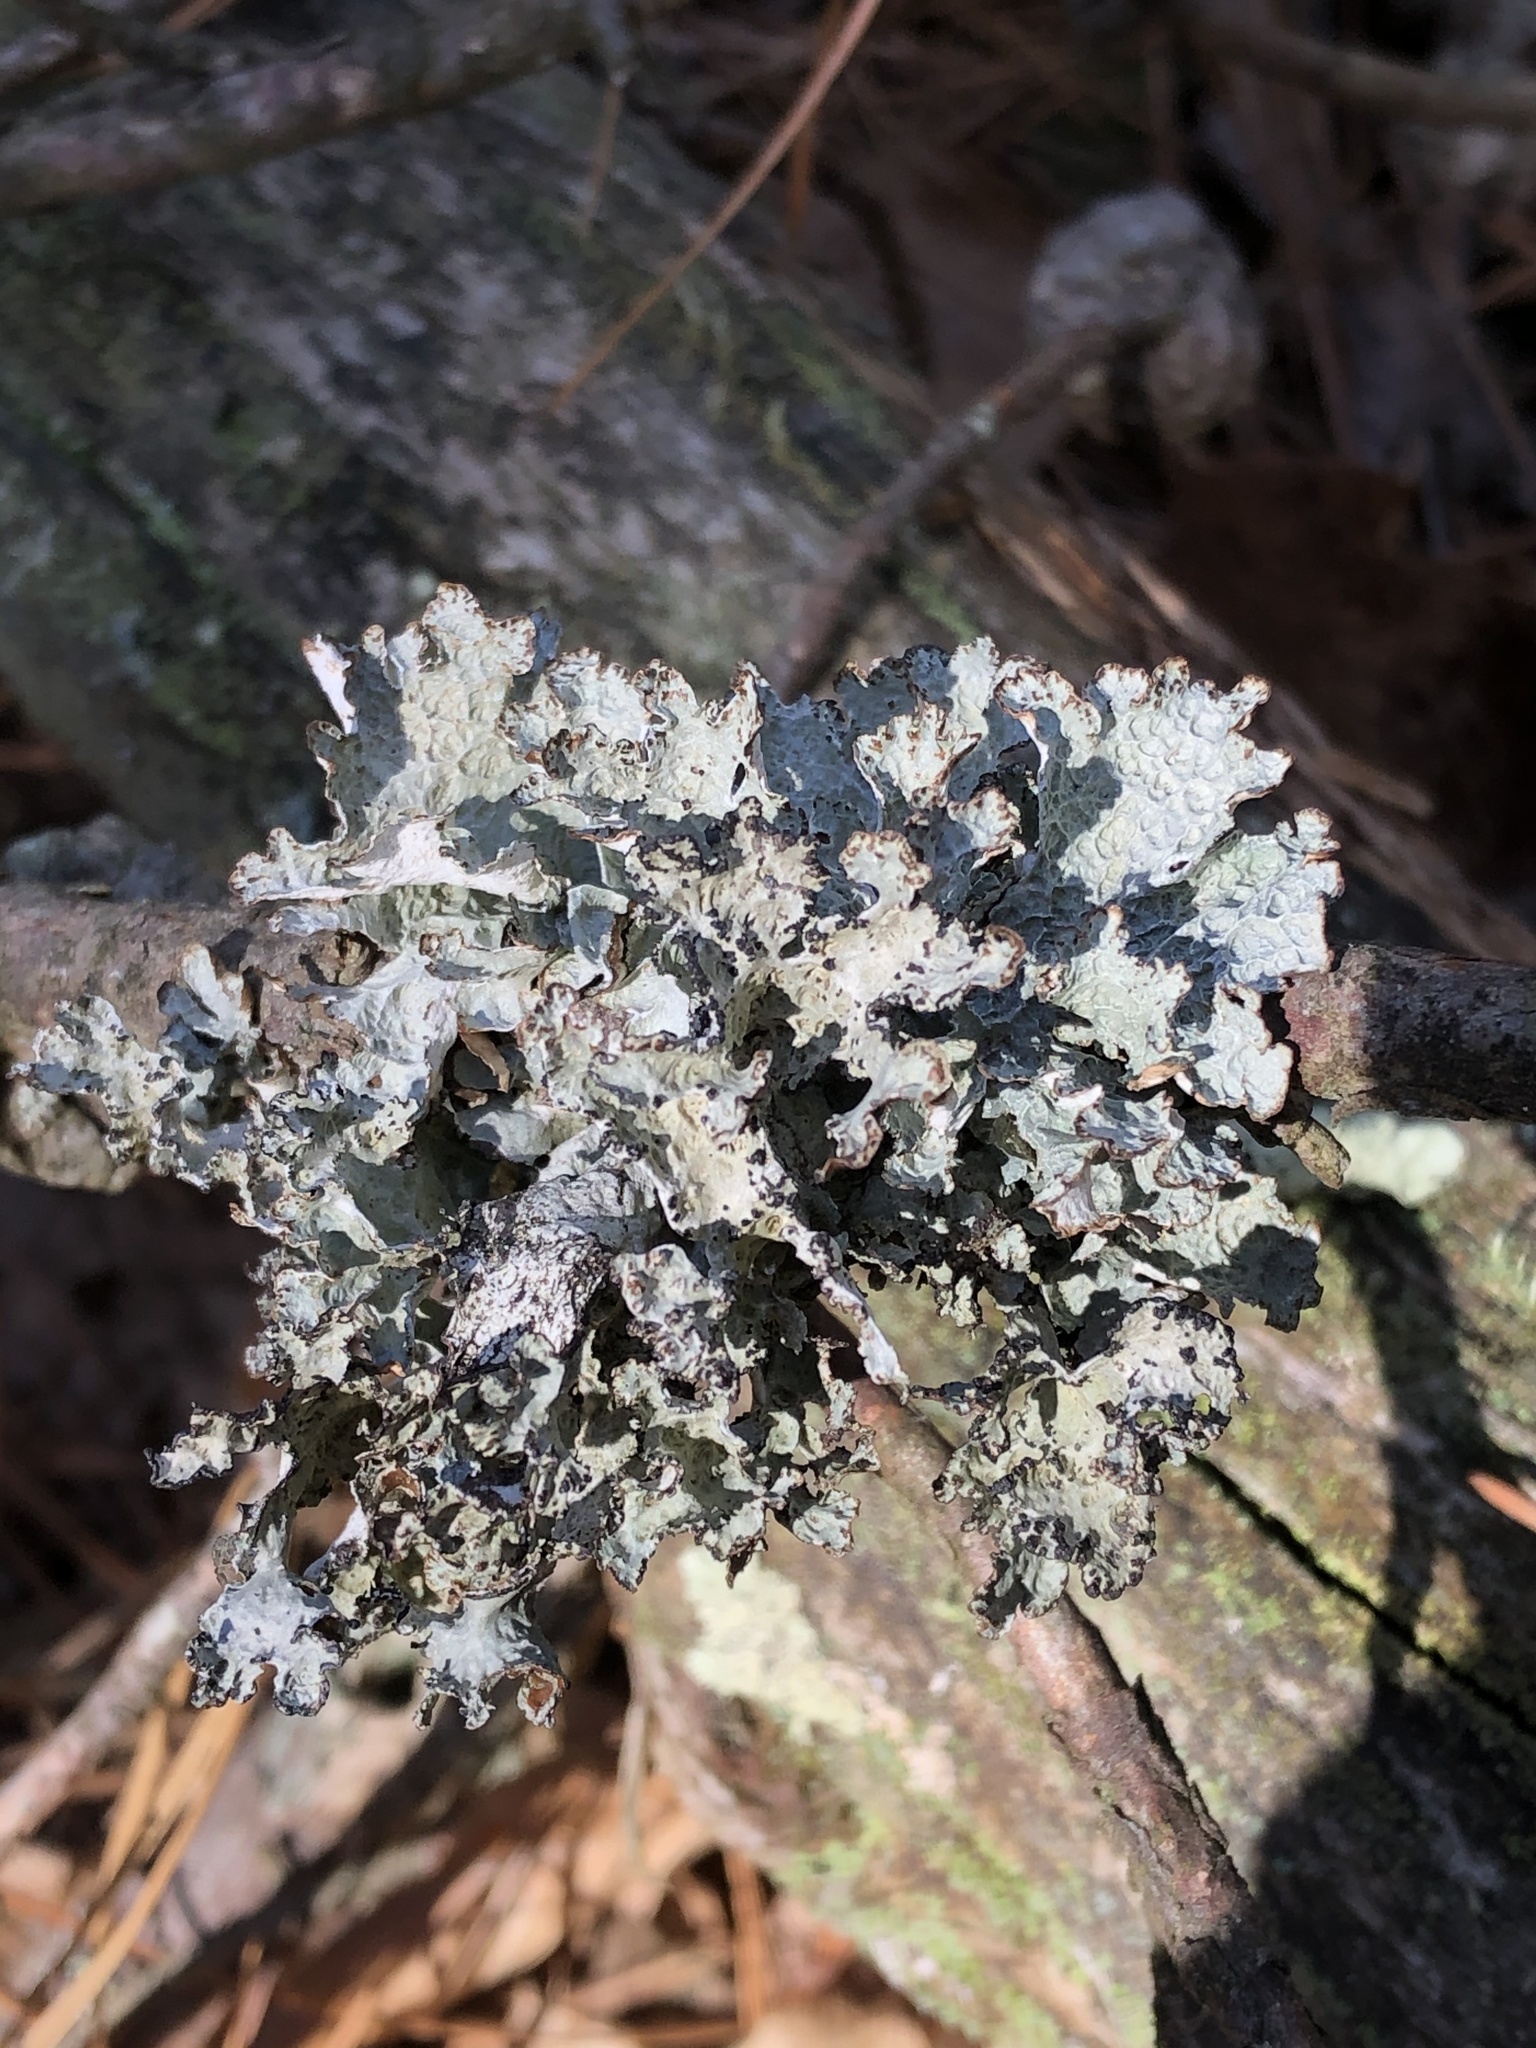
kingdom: Fungi
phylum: Ascomycota
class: Lecanoromycetes
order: Lecanorales
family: Parmeliaceae
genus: Platismatia
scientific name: Platismatia tuckermanii
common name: Crumpled rag lichen
